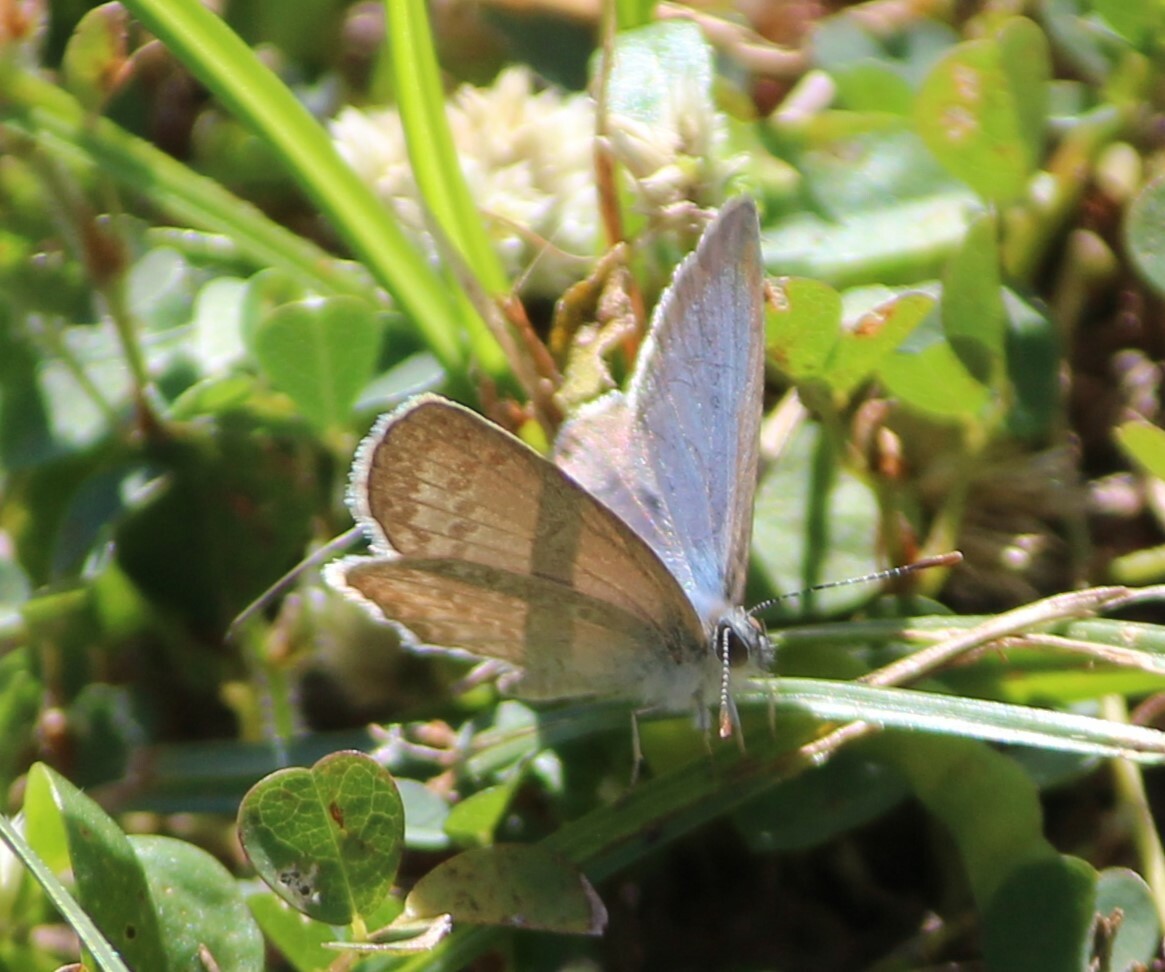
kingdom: Animalia
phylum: Arthropoda
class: Insecta
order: Lepidoptera
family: Lycaenidae
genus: Zizina
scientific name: Zizina otis
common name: Lesser grass blue
